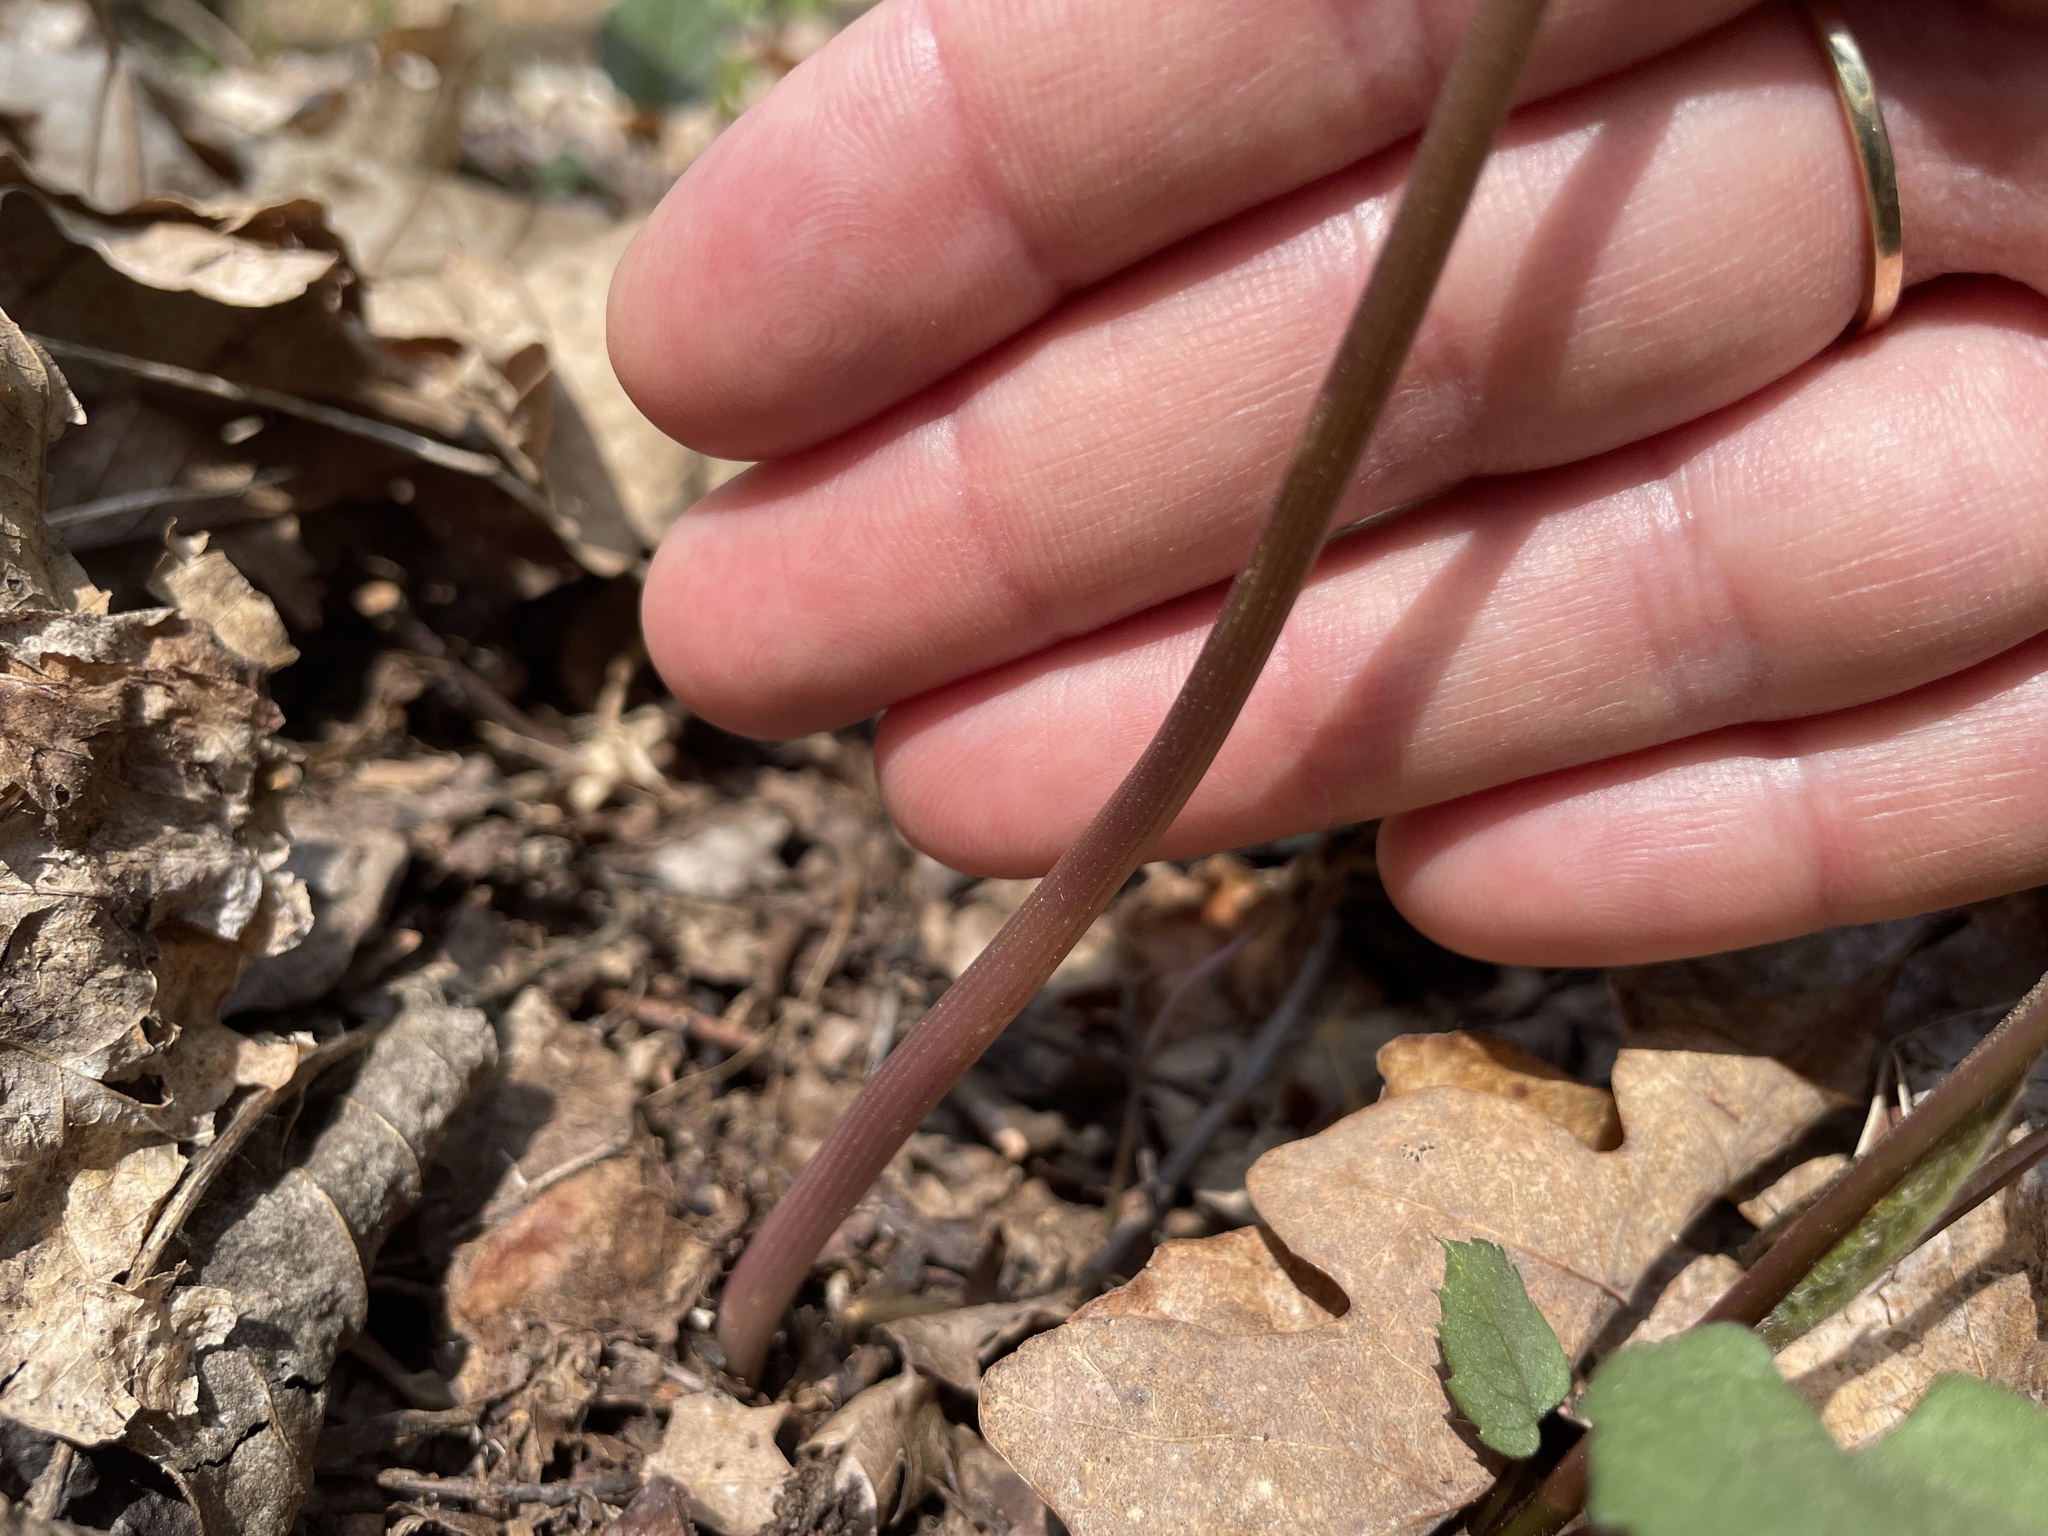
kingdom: Plantae
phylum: Tracheophyta
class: Liliopsida
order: Dioscoreales
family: Dioscoreaceae
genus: Dioscorea
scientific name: Dioscorea villosa
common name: Wild yam
